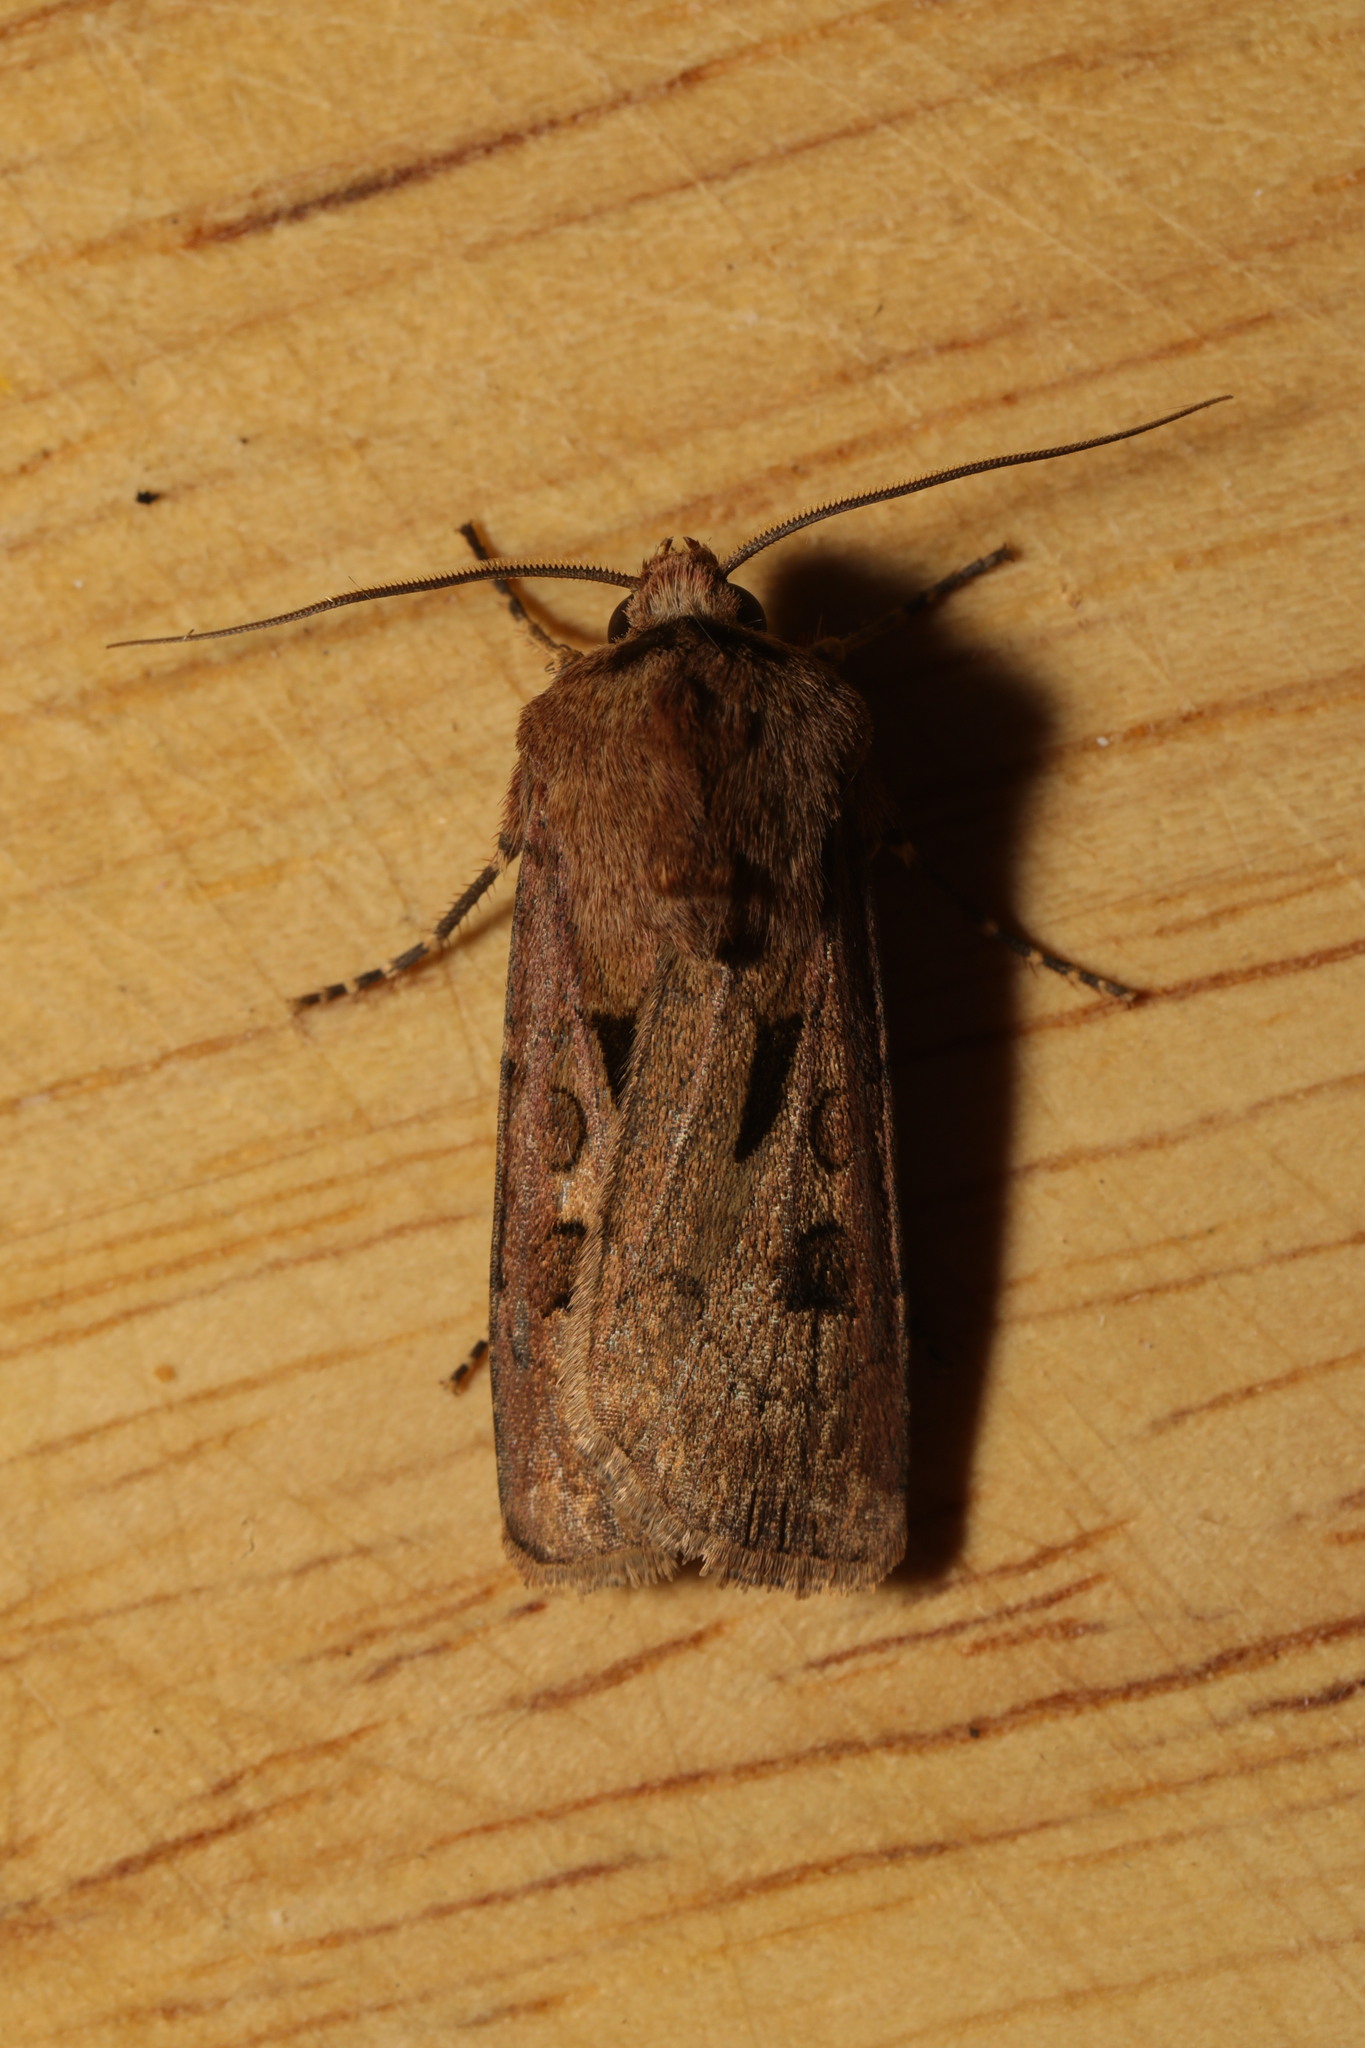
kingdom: Animalia
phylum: Arthropoda
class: Insecta
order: Lepidoptera
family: Noctuidae
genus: Agrotis
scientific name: Agrotis exclamationis
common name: Heart and dart
